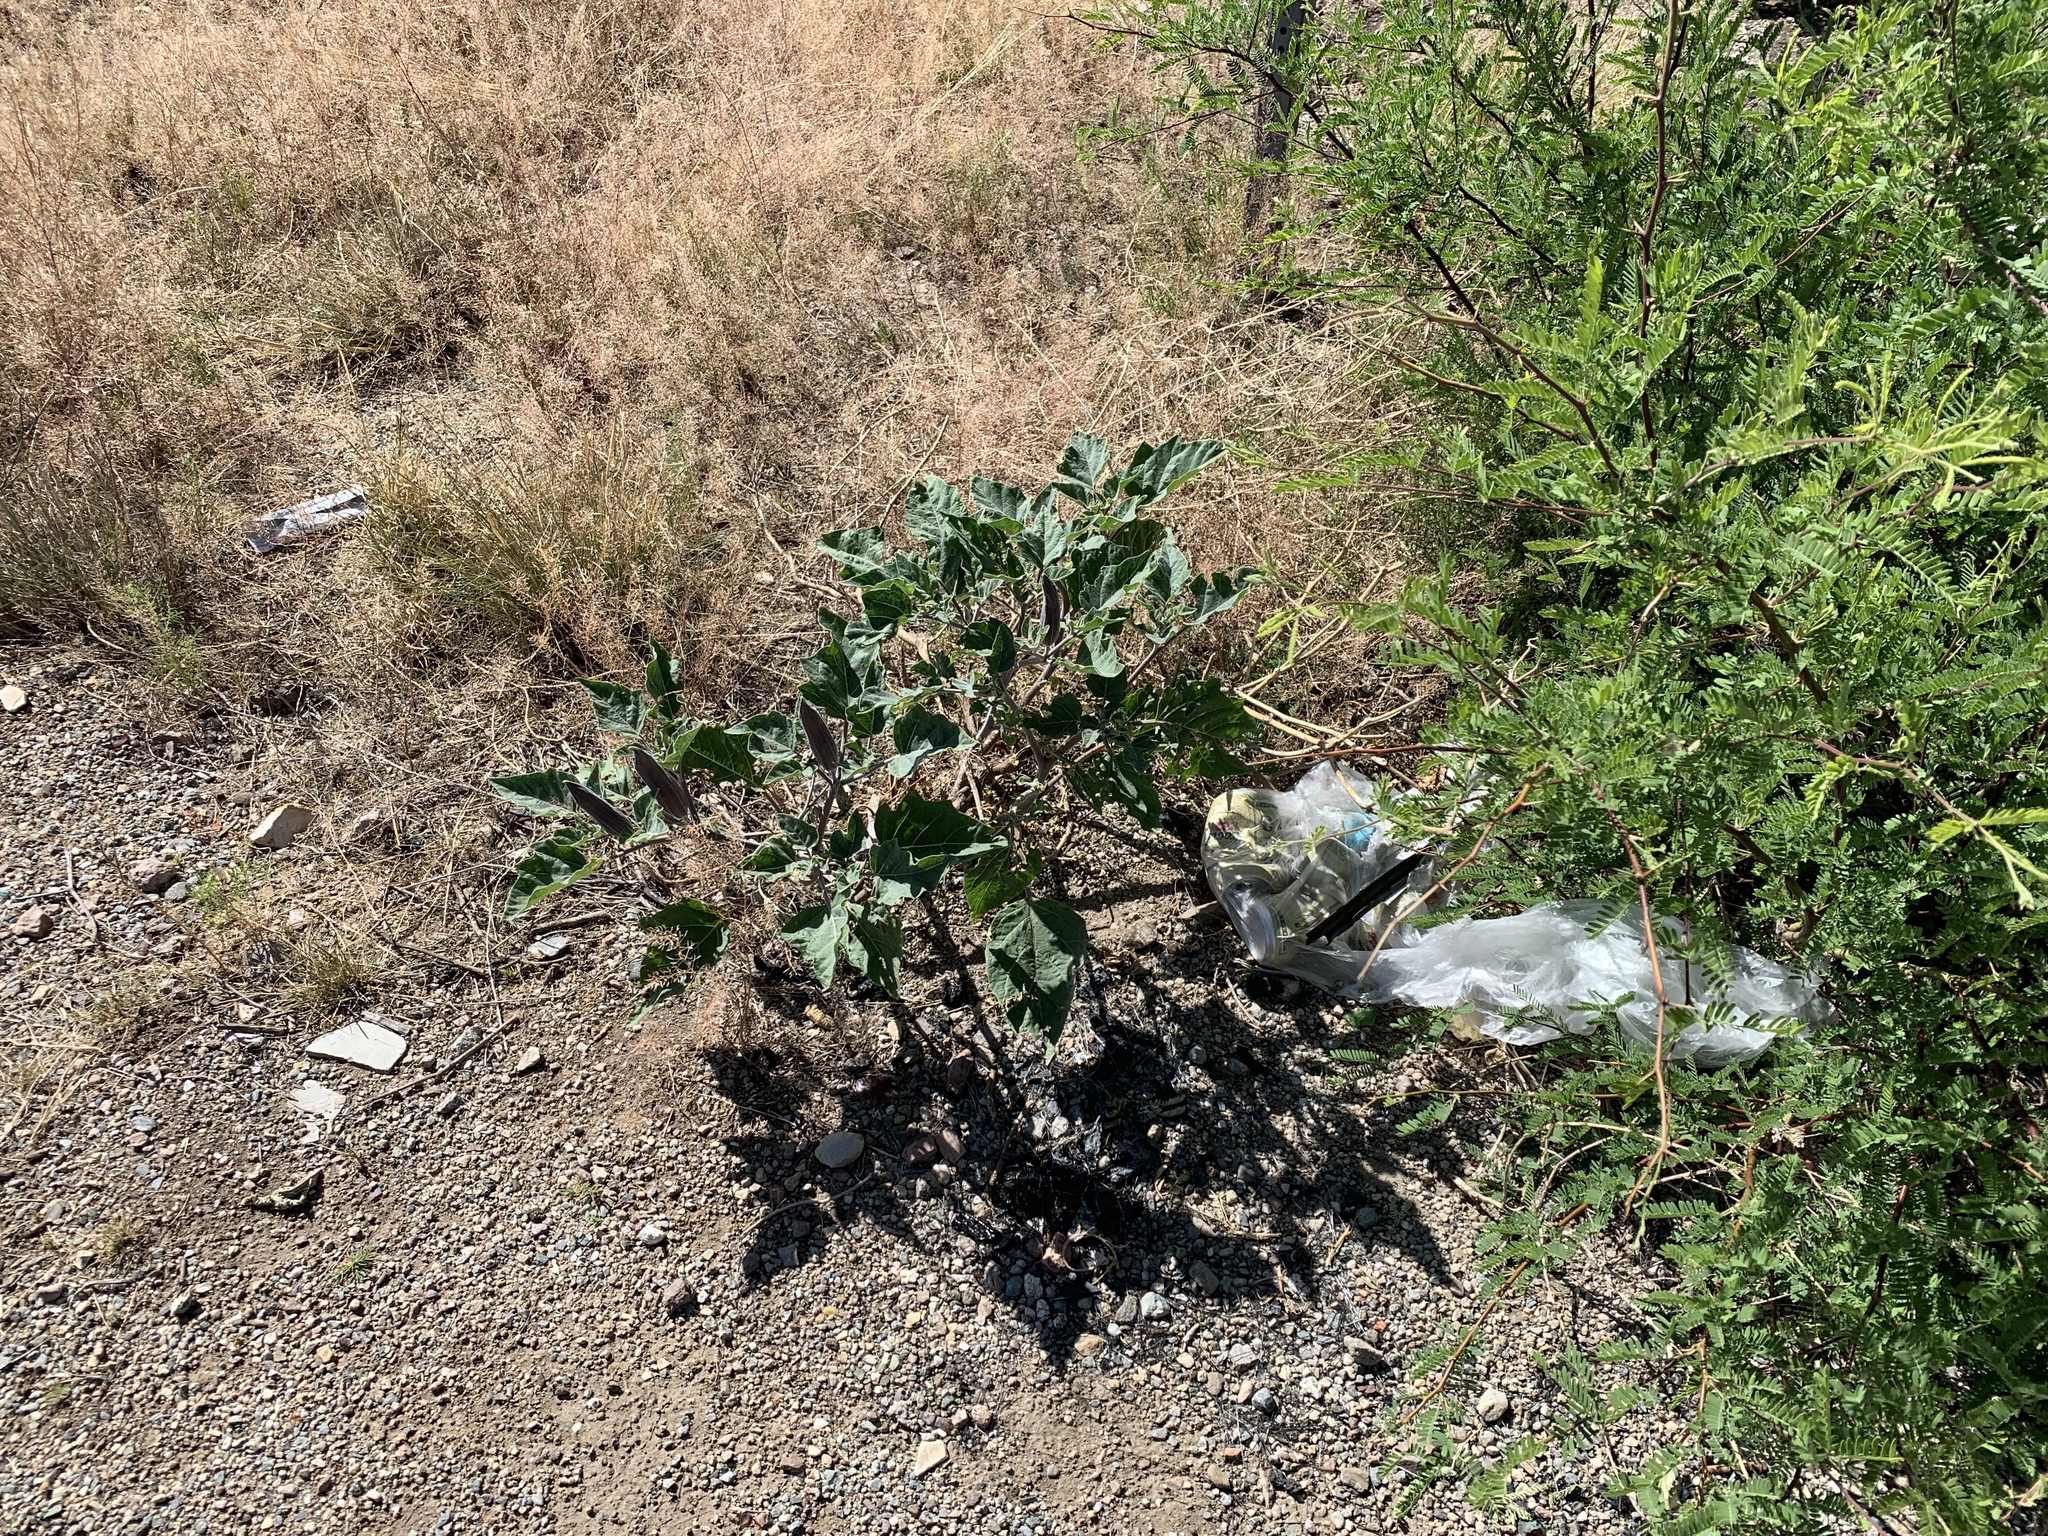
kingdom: Plantae
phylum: Tracheophyta
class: Magnoliopsida
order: Solanales
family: Solanaceae
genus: Datura
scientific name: Datura wrightii
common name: Sacred thorn-apple
